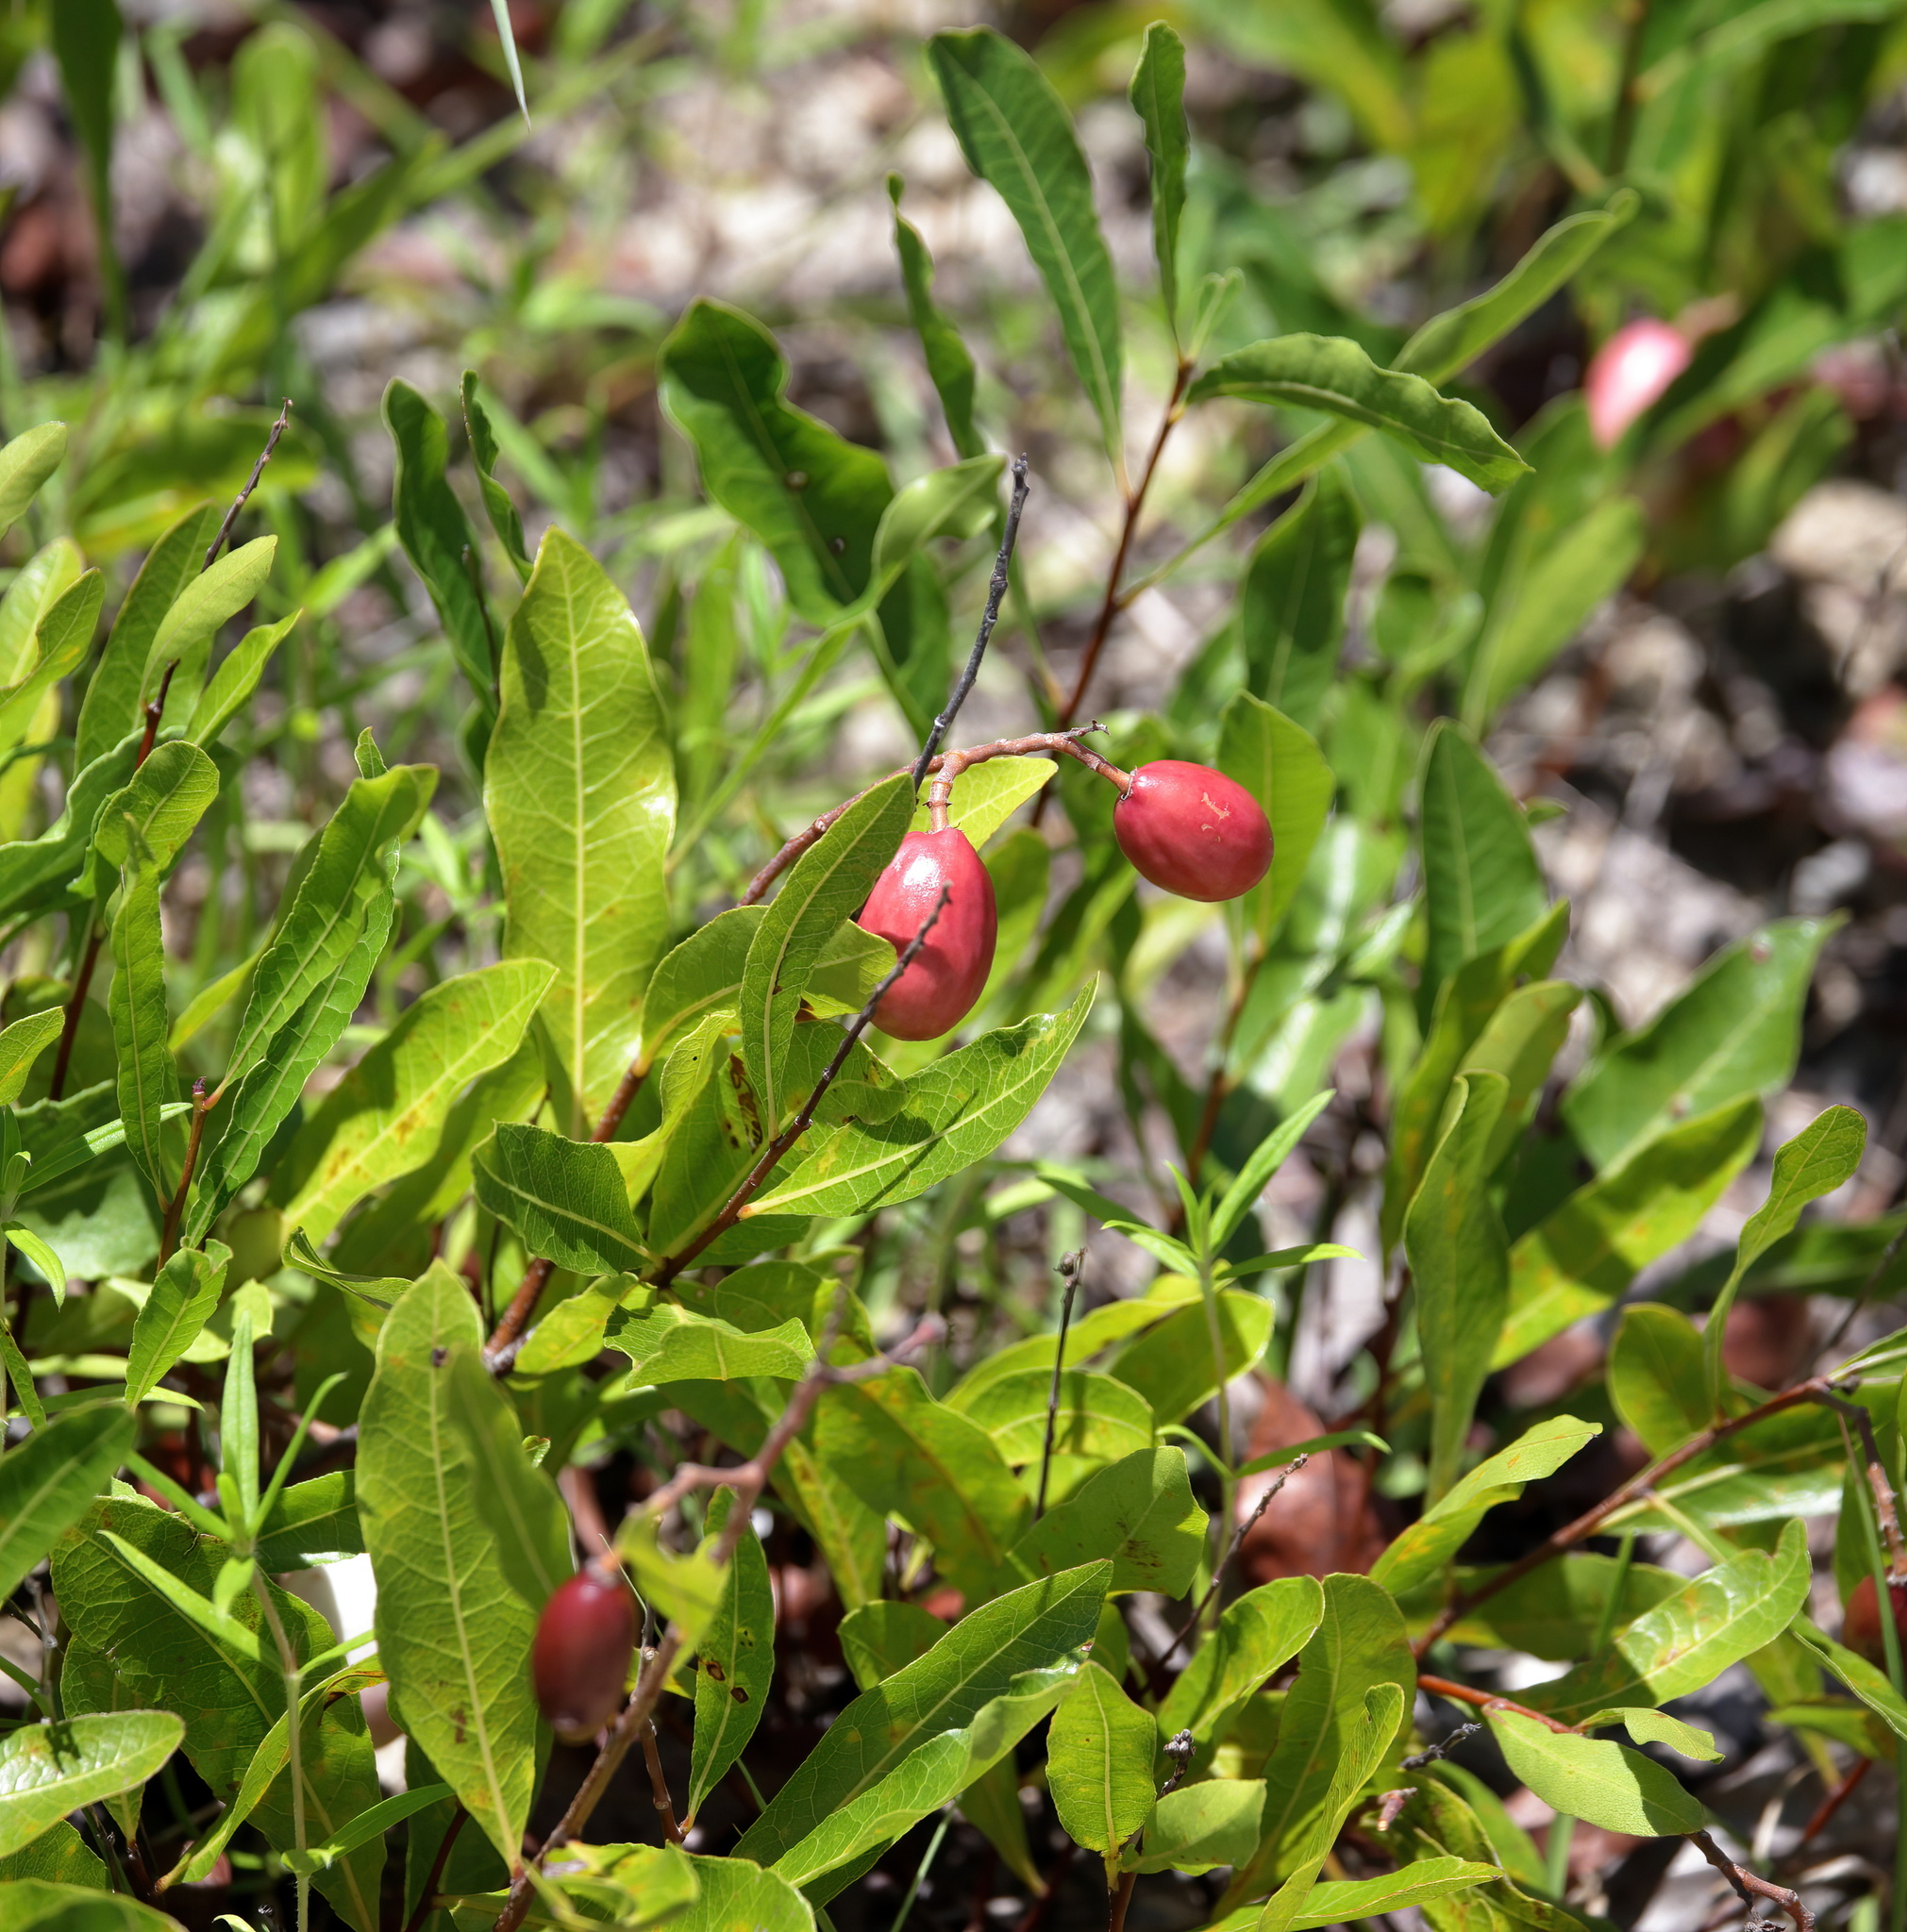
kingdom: Plantae
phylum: Tracheophyta
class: Magnoliopsida
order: Malpighiales
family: Chrysobalanaceae
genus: Geobalanus
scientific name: Geobalanus oblongifolius
